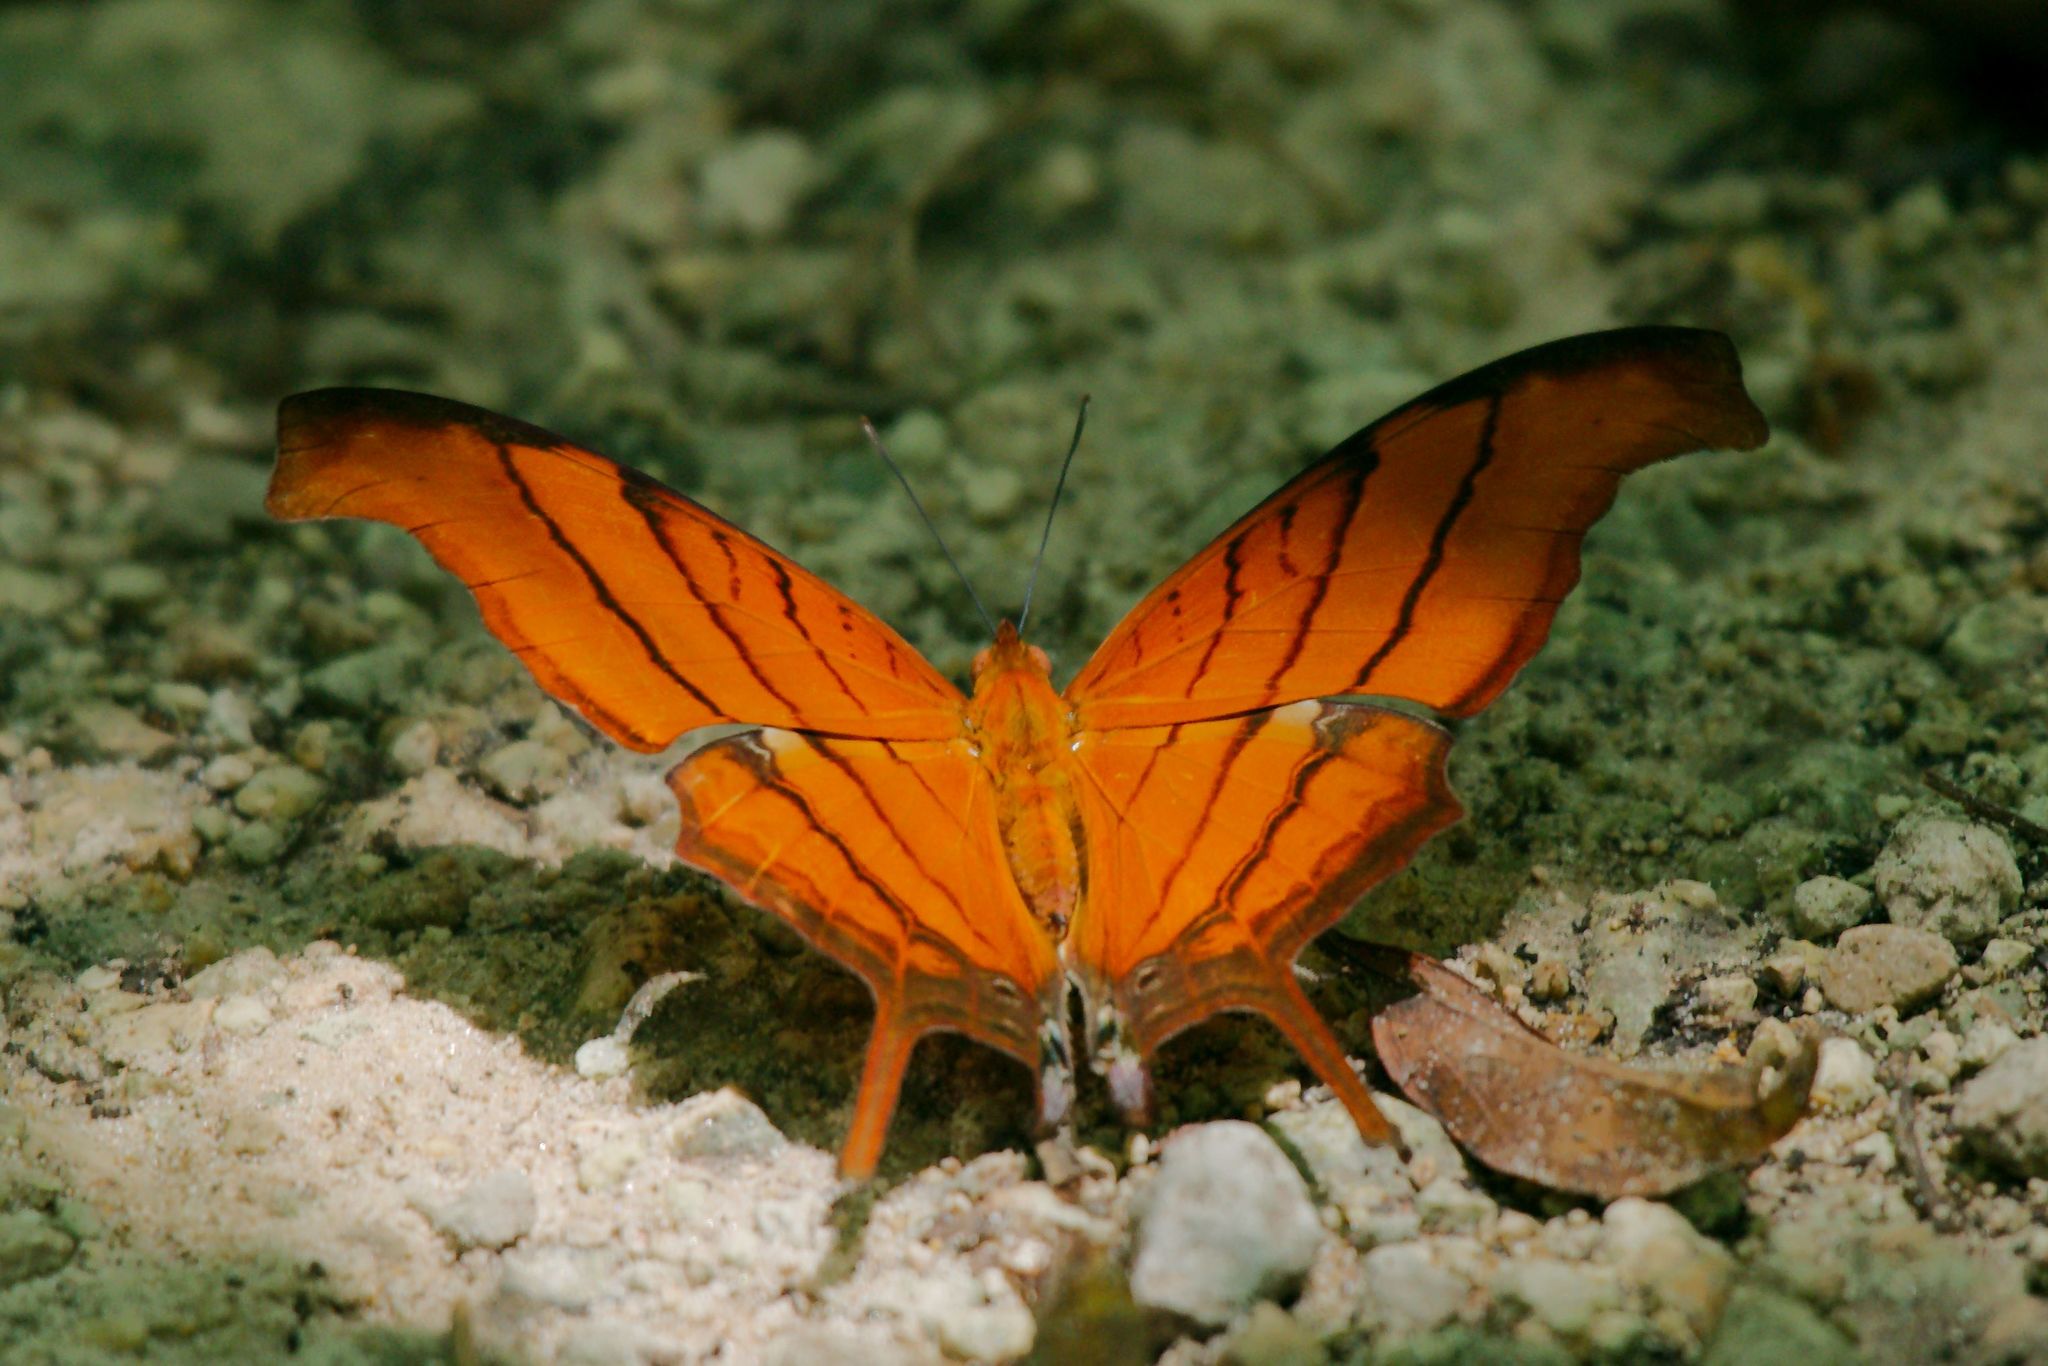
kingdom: Animalia
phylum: Arthropoda
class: Insecta
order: Lepidoptera
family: Nymphalidae
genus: Marpesia
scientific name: Marpesia petreus
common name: Red dagger wing
